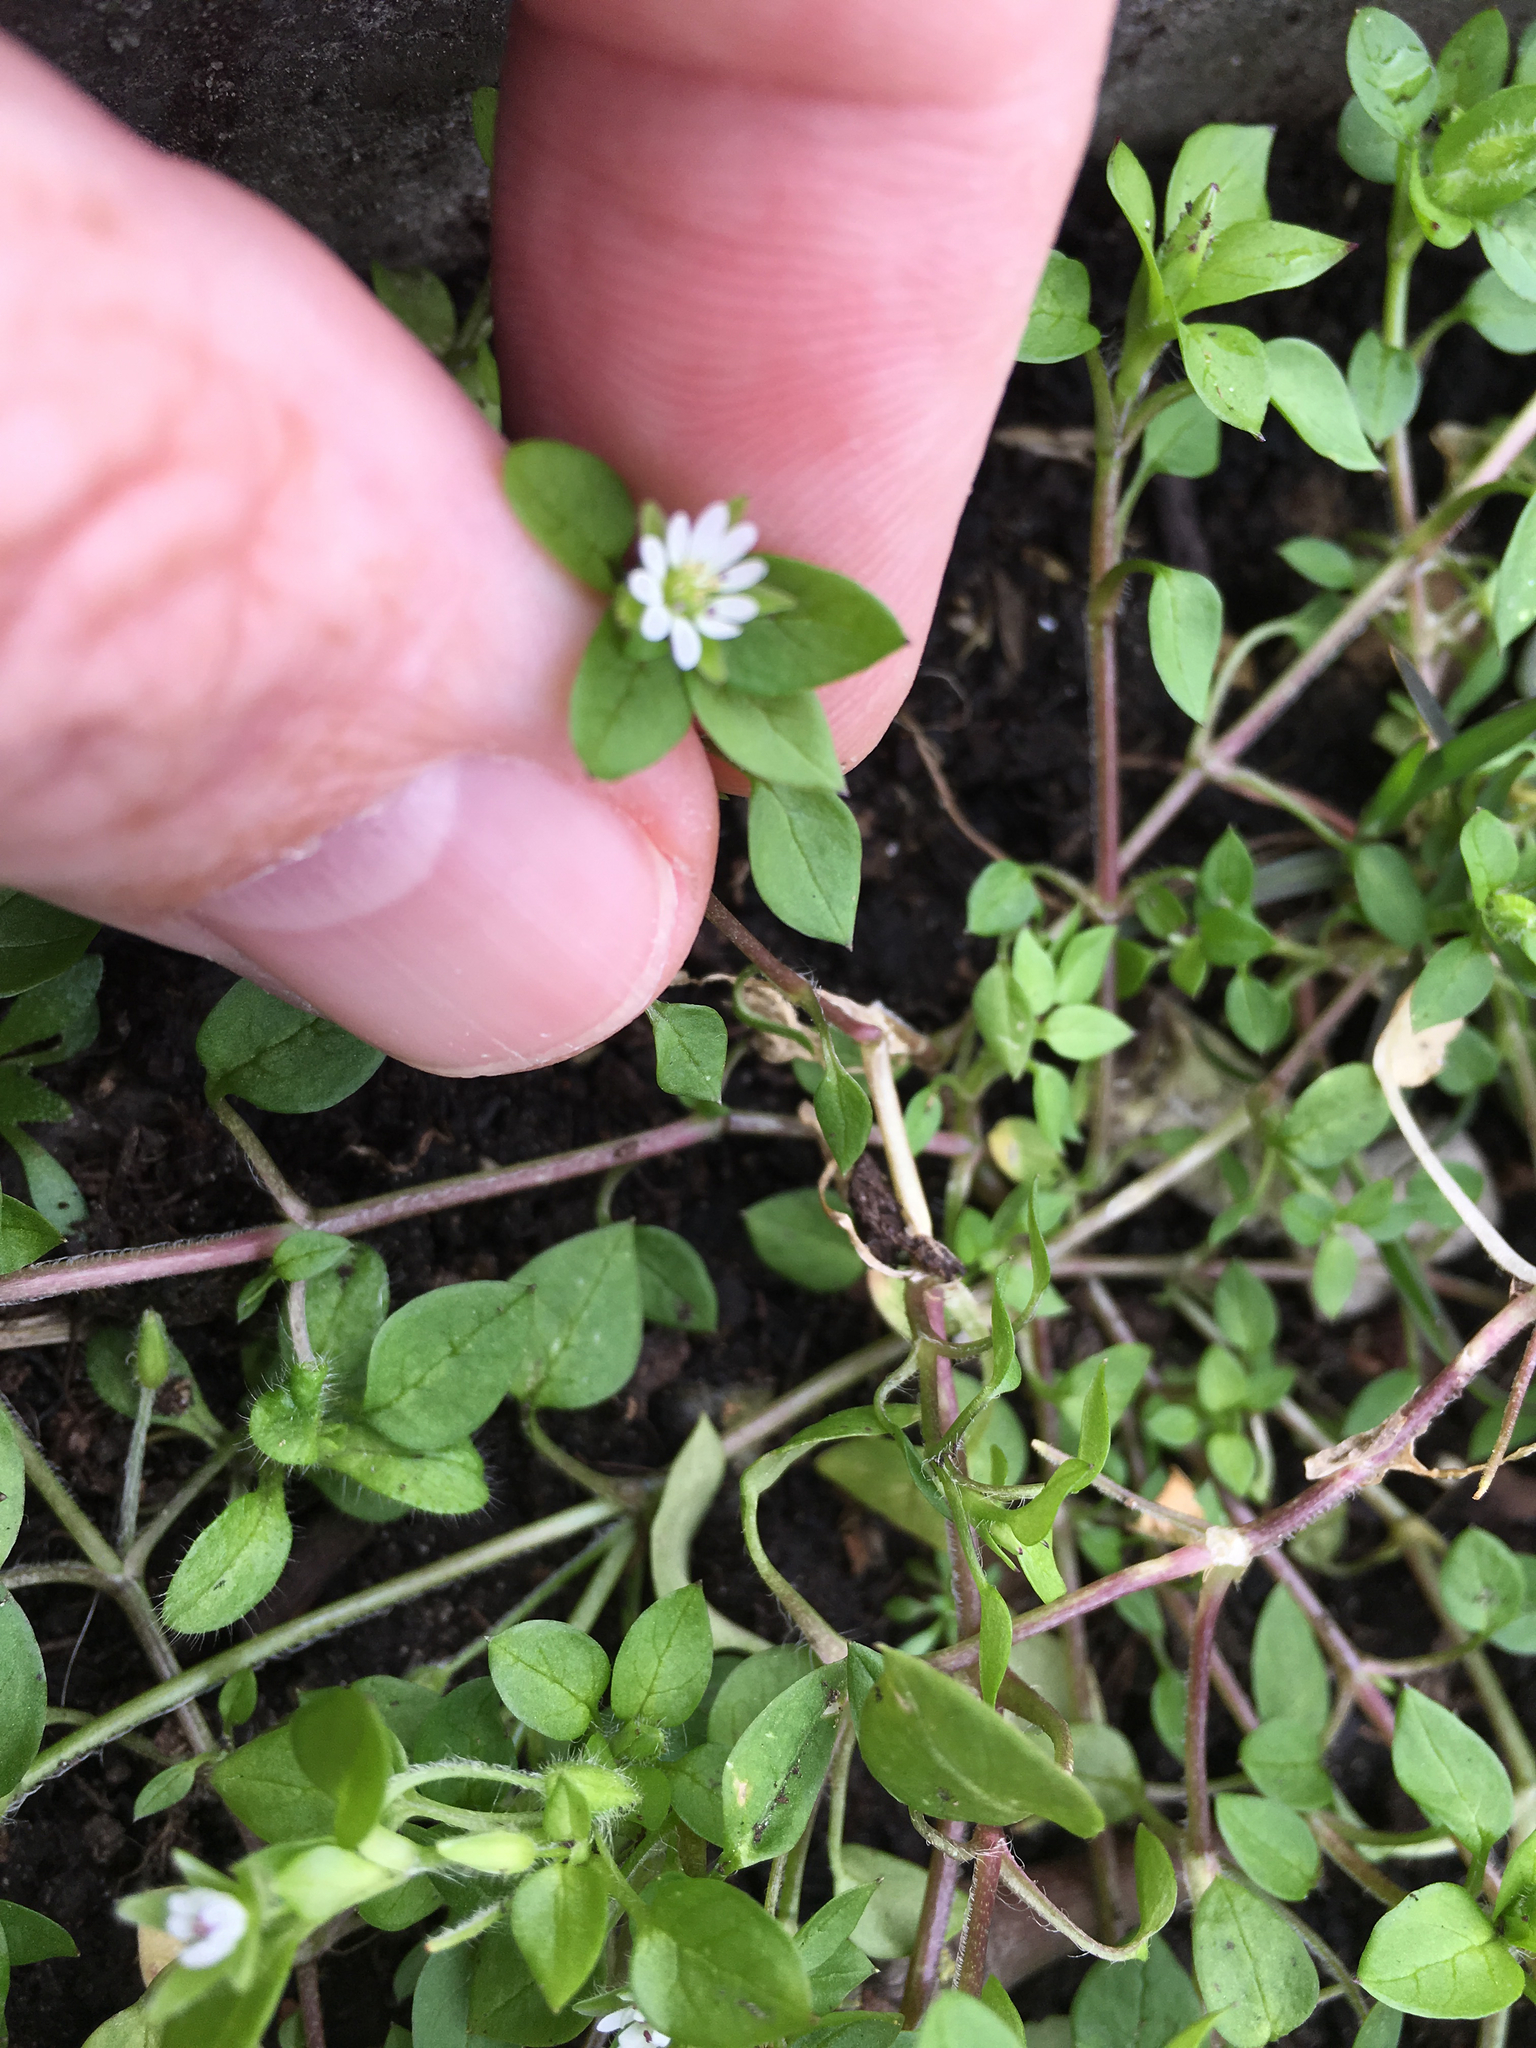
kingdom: Plantae
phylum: Tracheophyta
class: Magnoliopsida
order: Caryophyllales
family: Caryophyllaceae
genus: Stellaria
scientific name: Stellaria media
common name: Common chickweed
